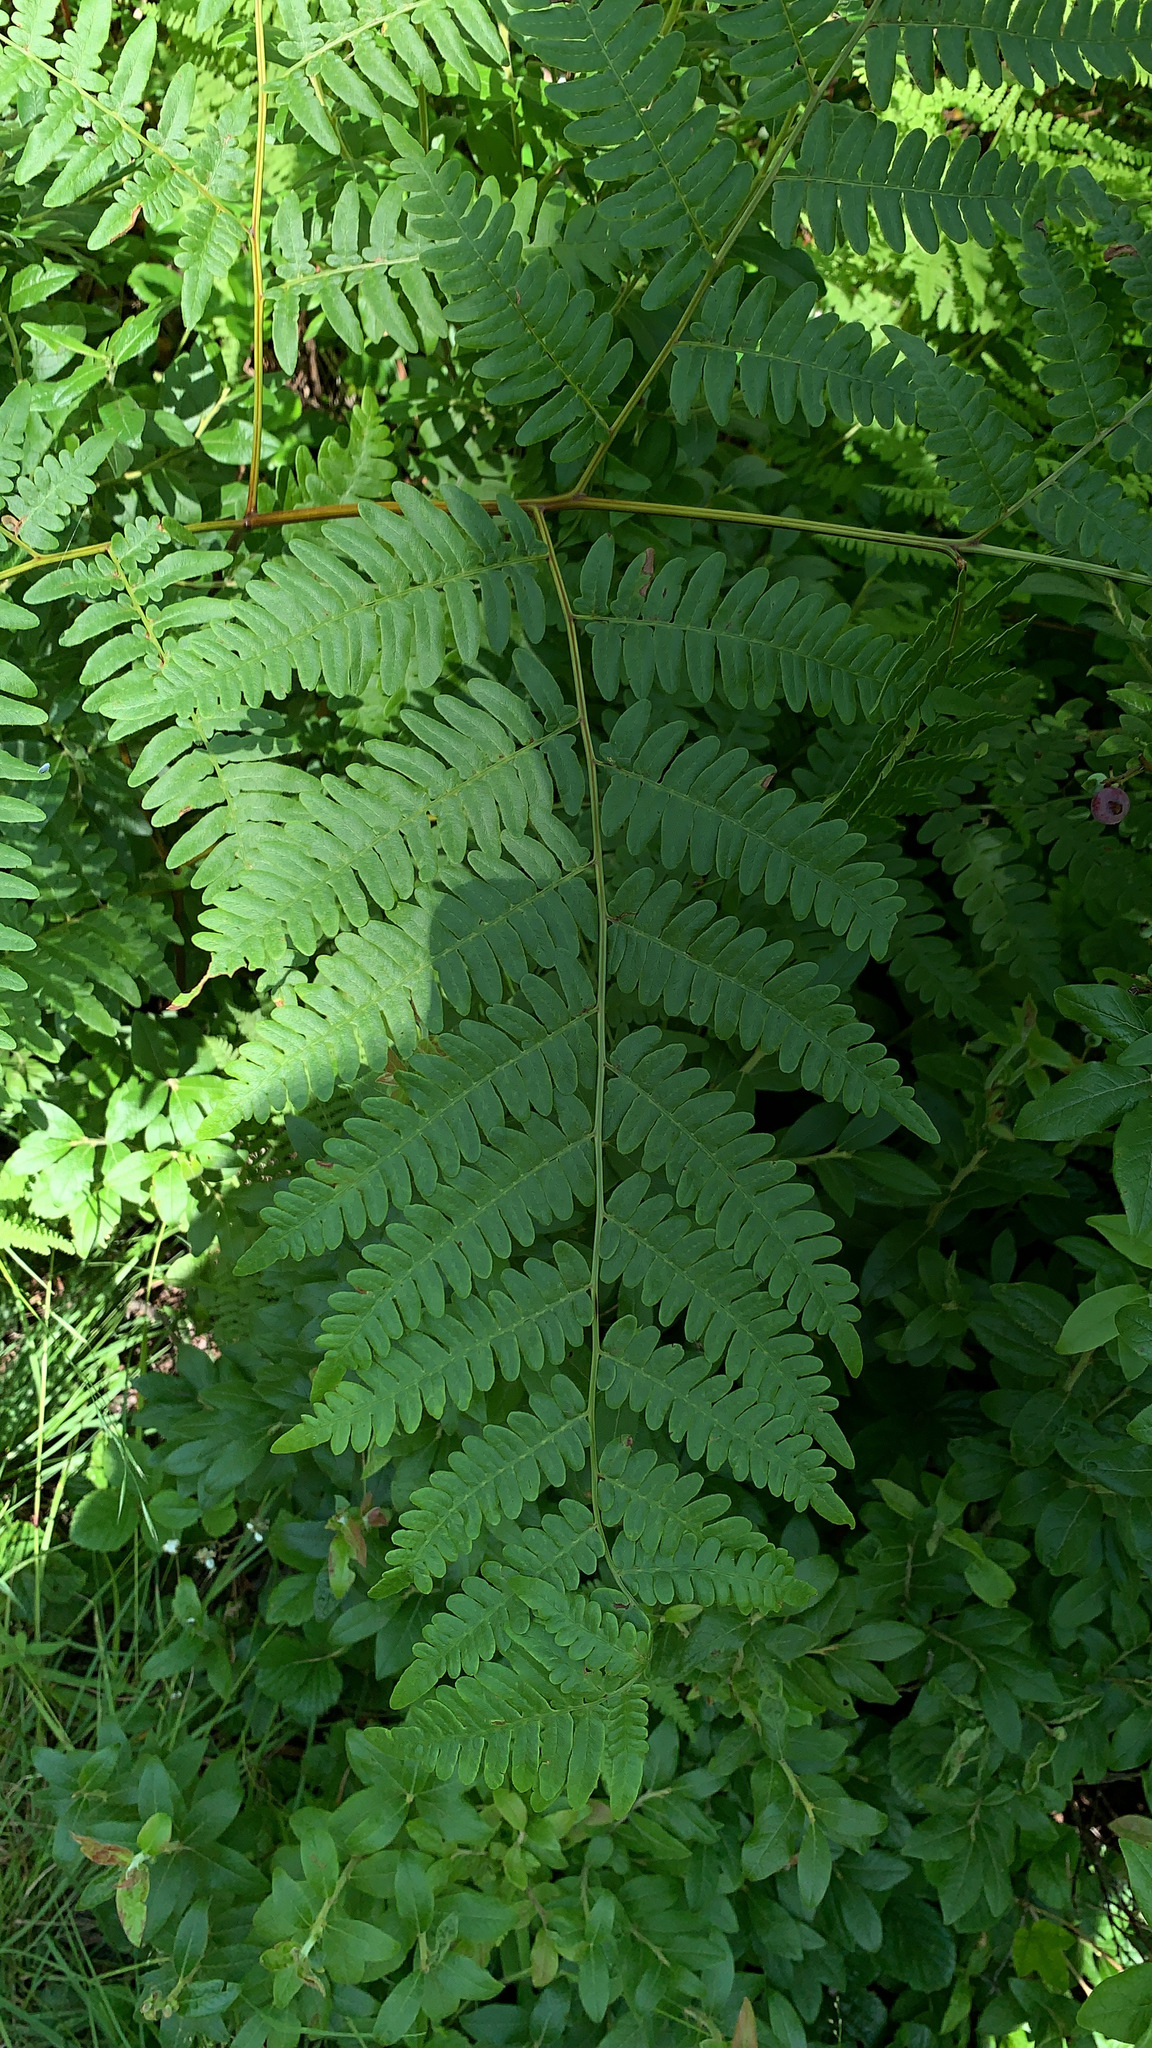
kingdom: Plantae
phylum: Tracheophyta
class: Polypodiopsida
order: Polypodiales
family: Dennstaedtiaceae
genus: Pteridium
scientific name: Pteridium aquilinum
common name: Bracken
